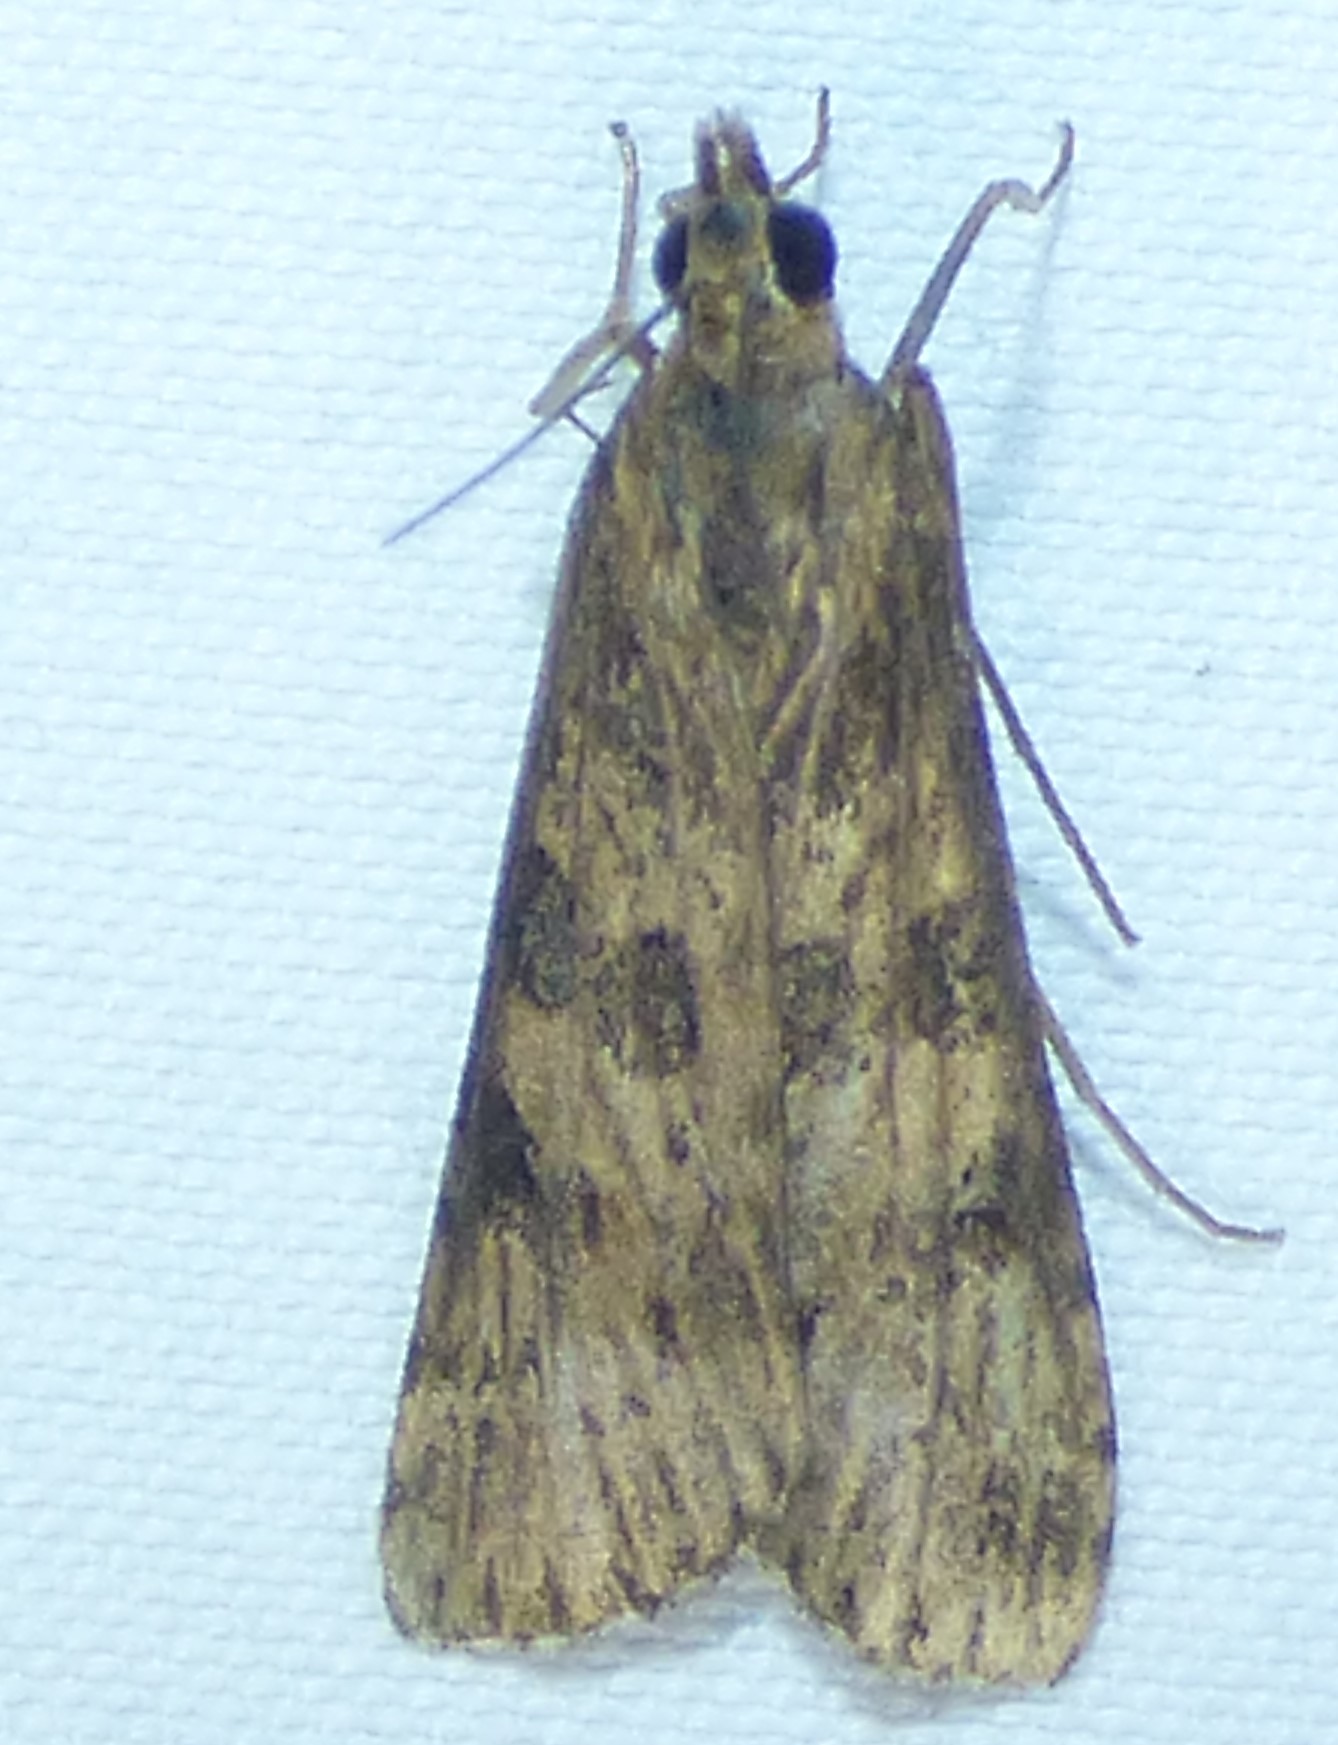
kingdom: Animalia
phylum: Arthropoda
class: Insecta
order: Lepidoptera
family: Crambidae
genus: Nomophila
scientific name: Nomophila nearctica
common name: American rush veneer
